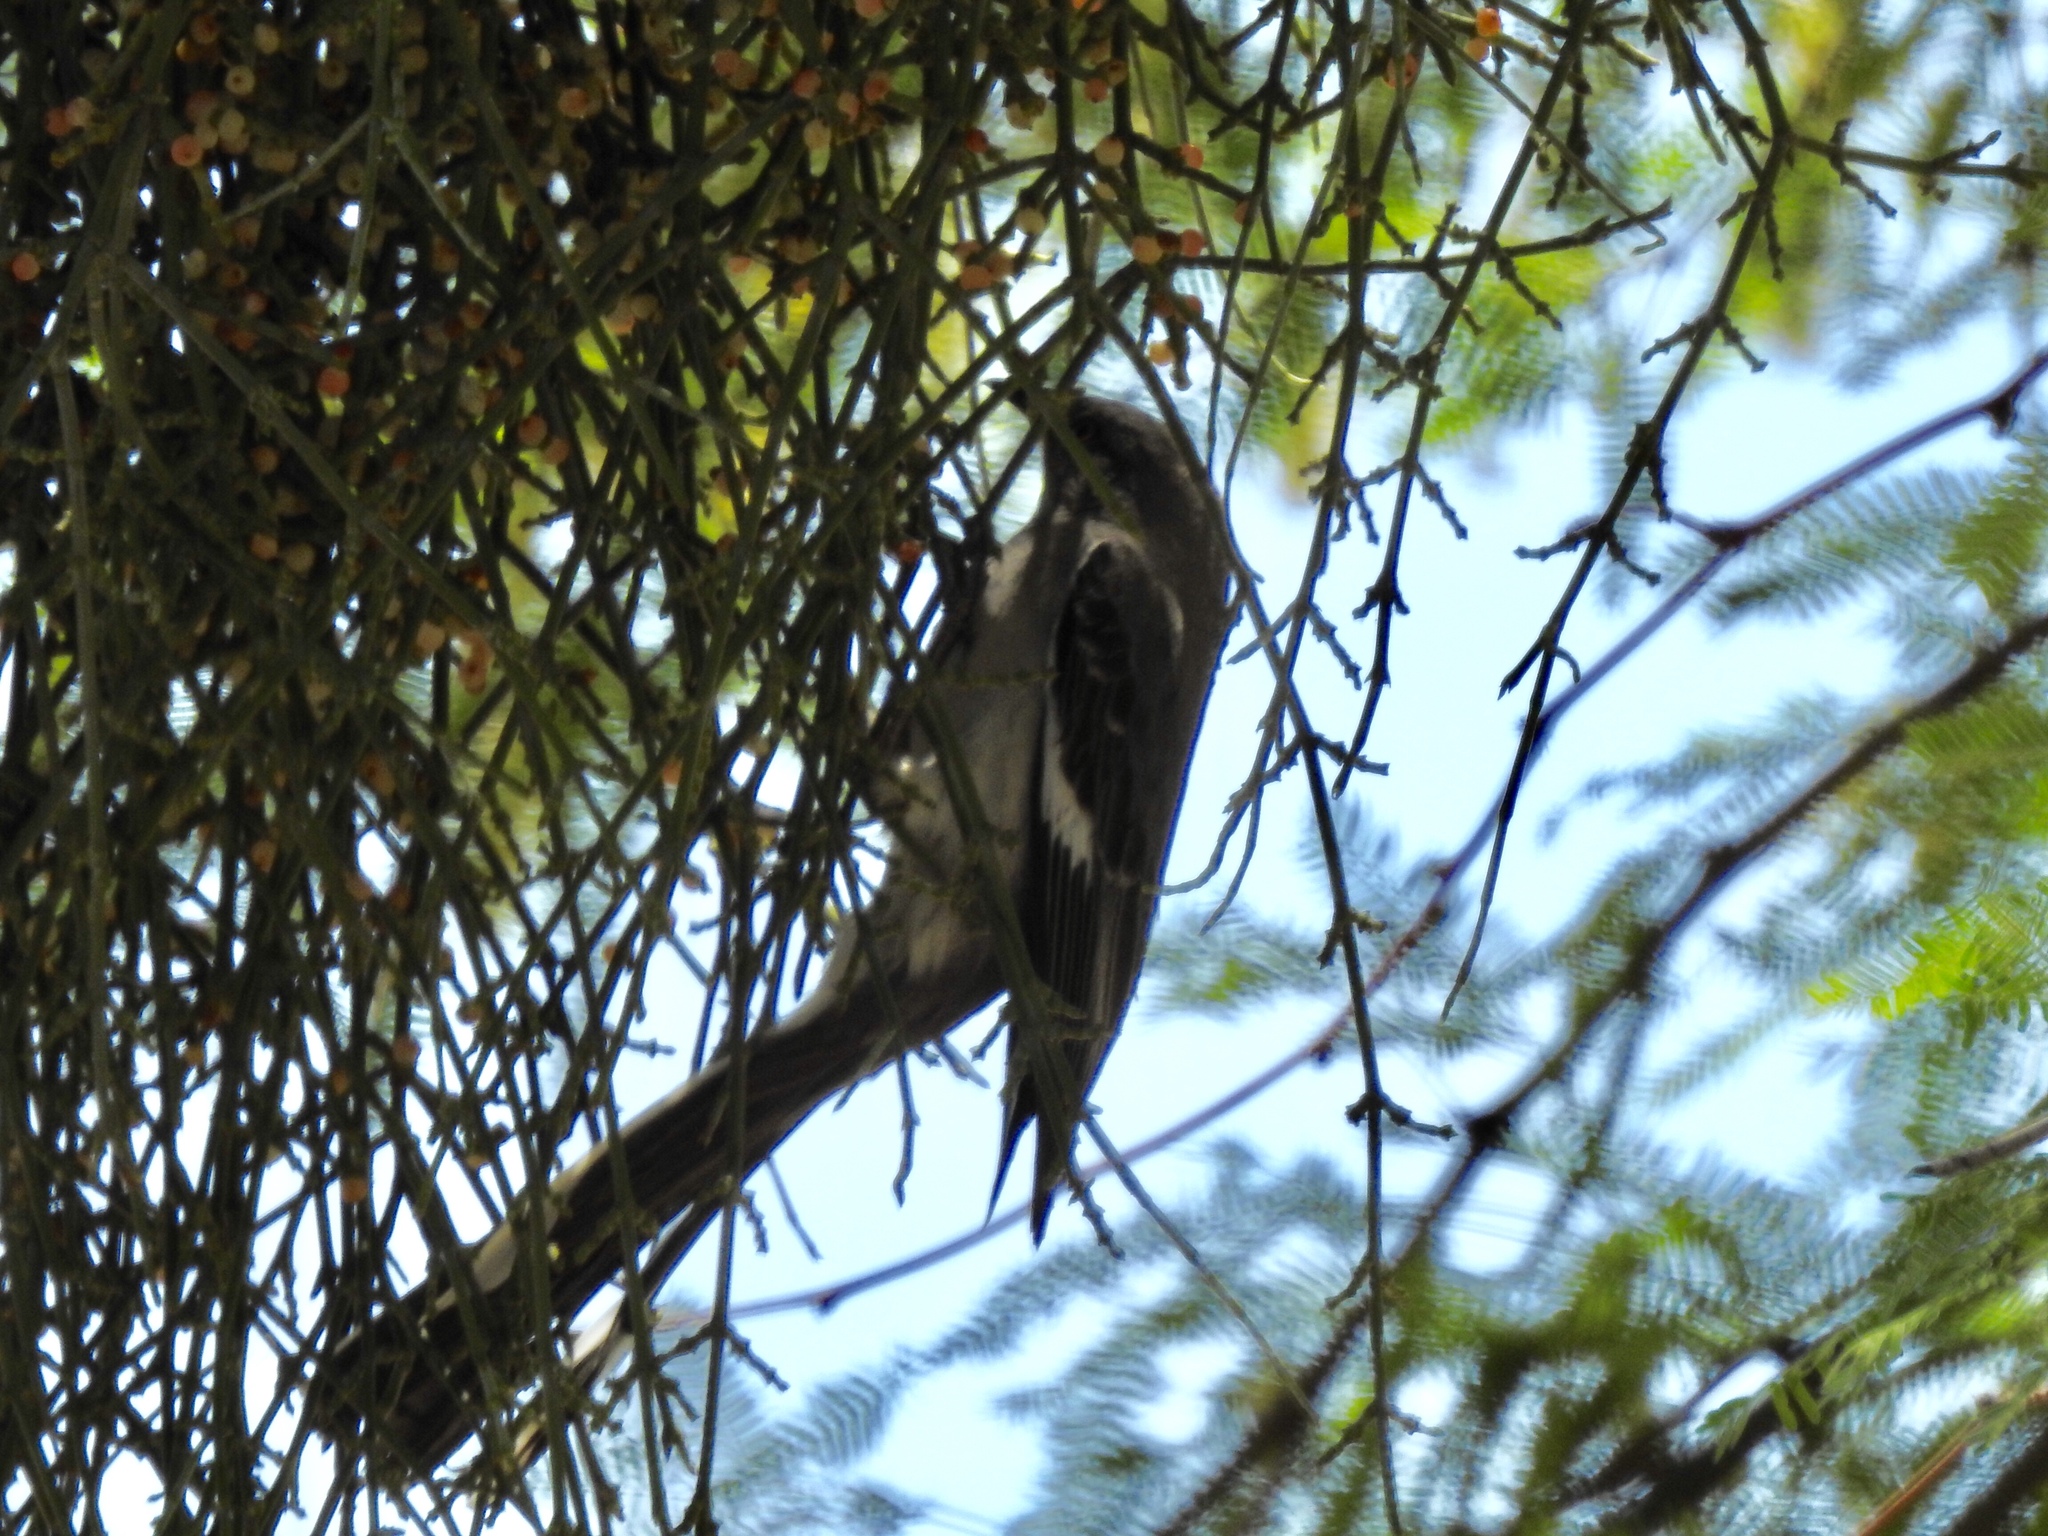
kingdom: Animalia
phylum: Chordata
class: Aves
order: Passeriformes
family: Mimidae
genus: Mimus
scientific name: Mimus polyglottos
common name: Northern mockingbird
